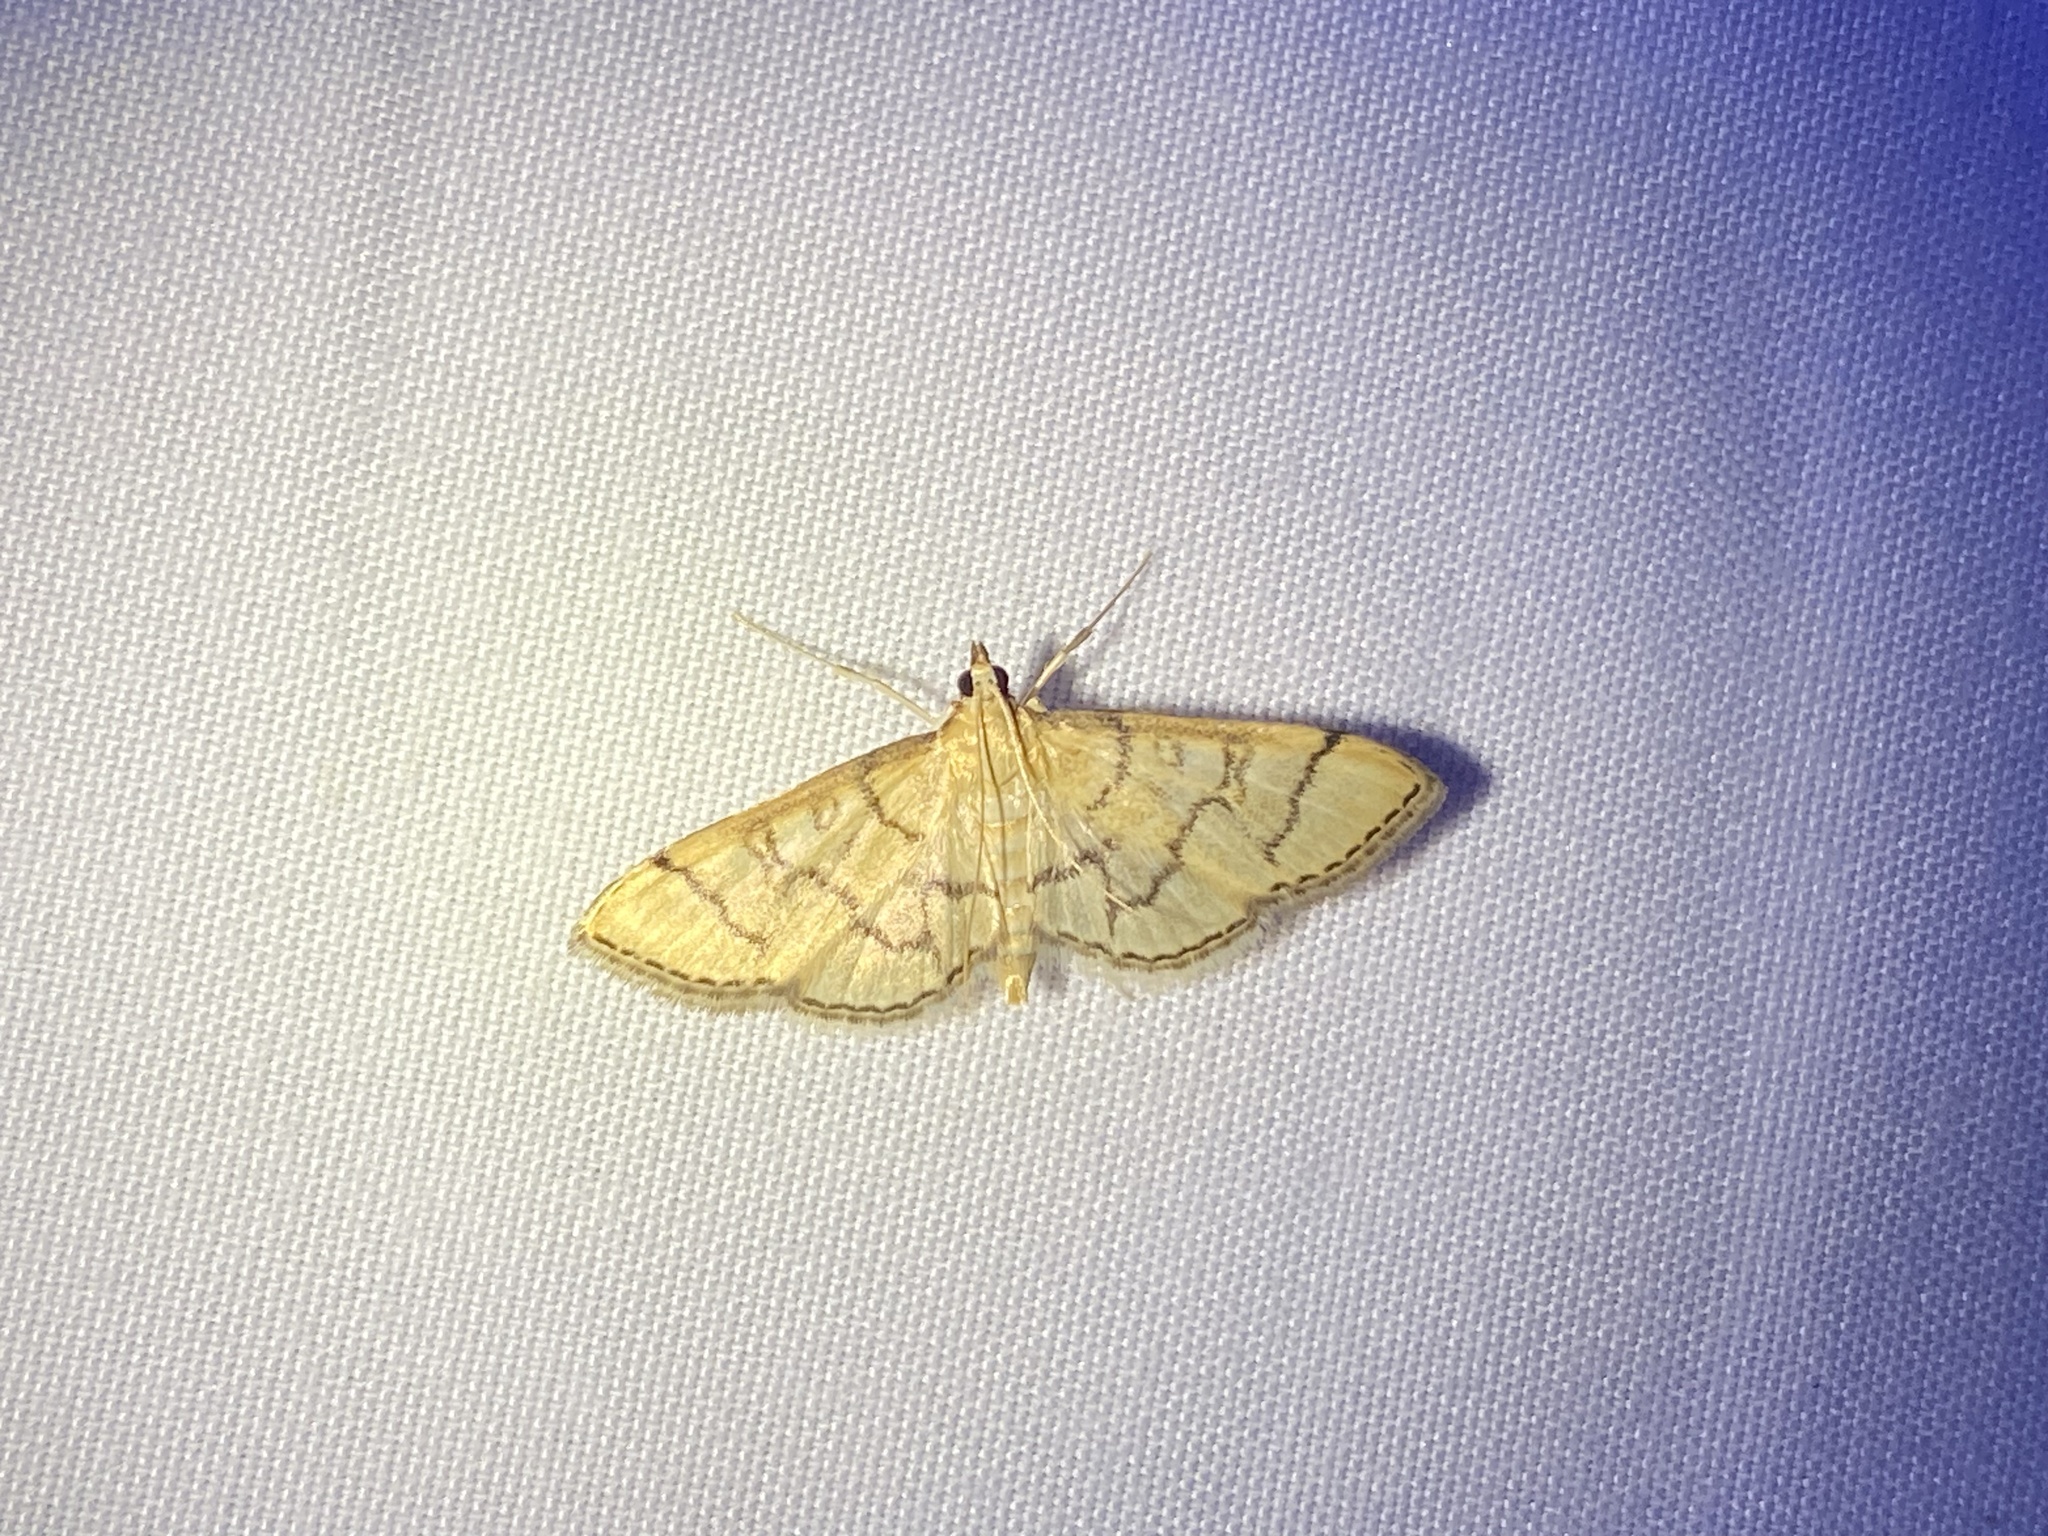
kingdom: Animalia
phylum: Arthropoda
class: Insecta
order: Lepidoptera
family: Crambidae
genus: Lamprosema
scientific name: Lamprosema Blepharomastix ranalis
